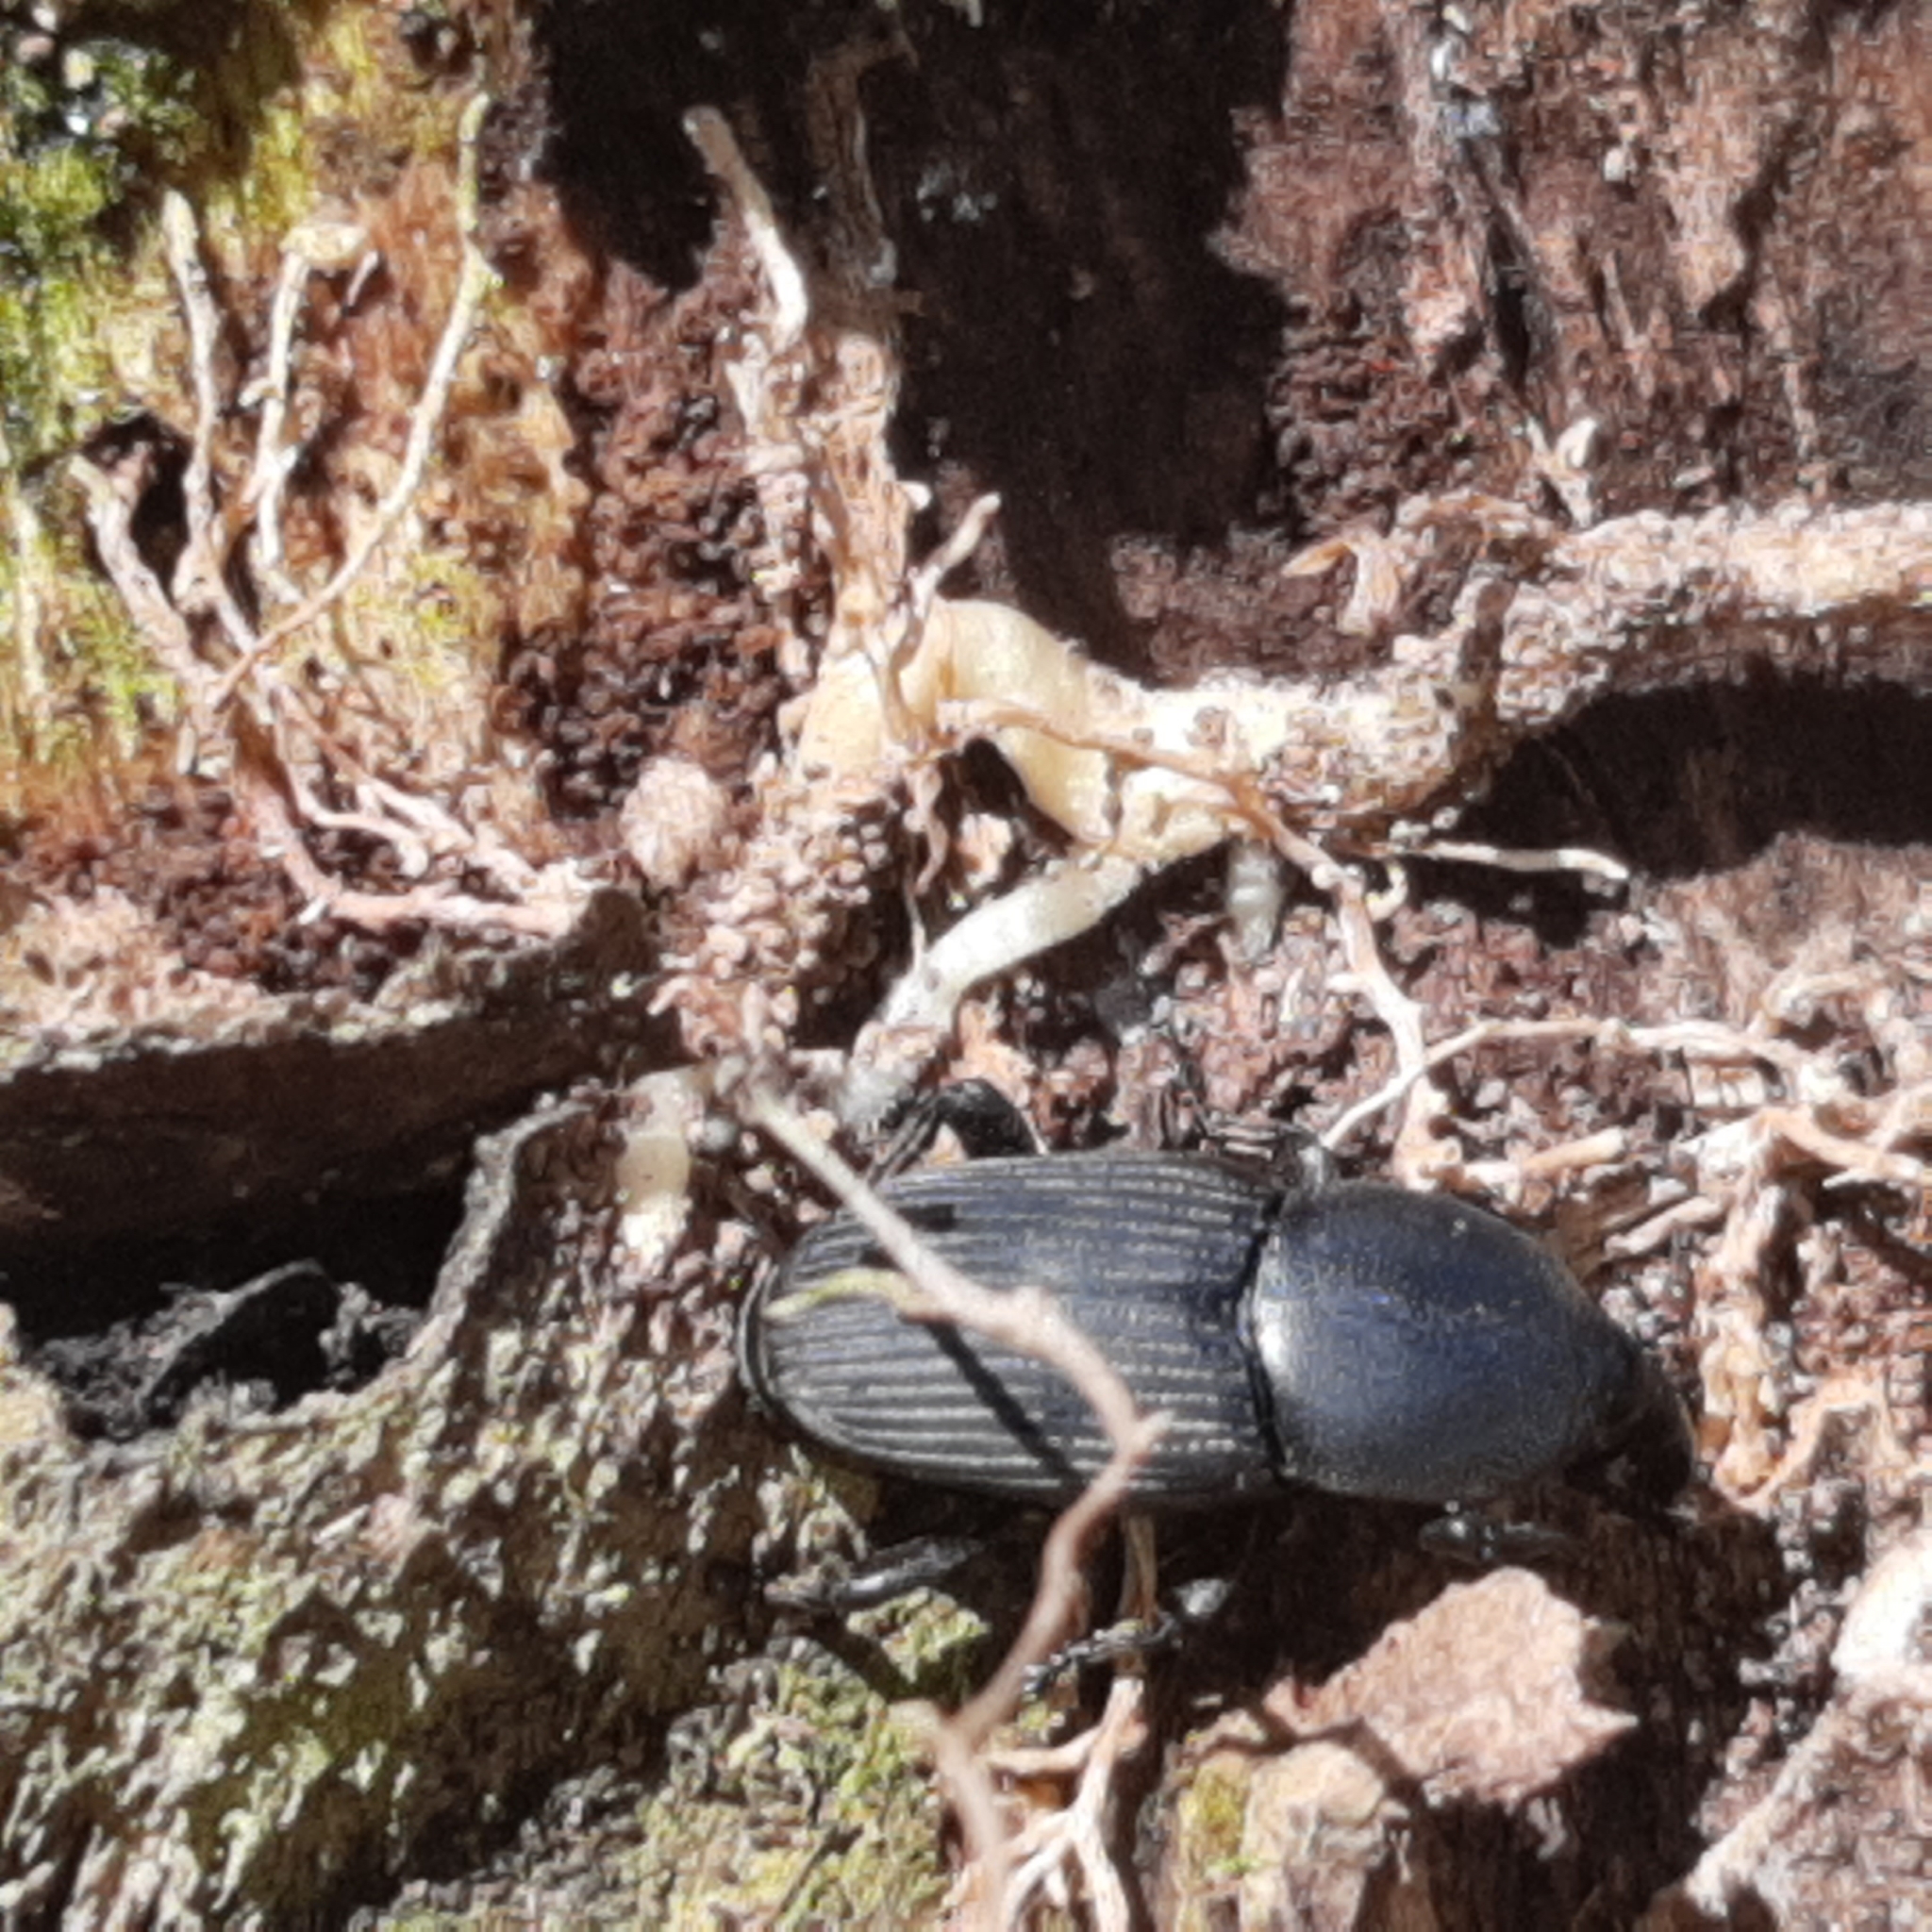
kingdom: Animalia
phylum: Arthropoda
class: Insecta
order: Coleoptera
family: Dryophthoridae
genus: Scyphophorus
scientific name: Scyphophorus acupunctatus
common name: Weevil
